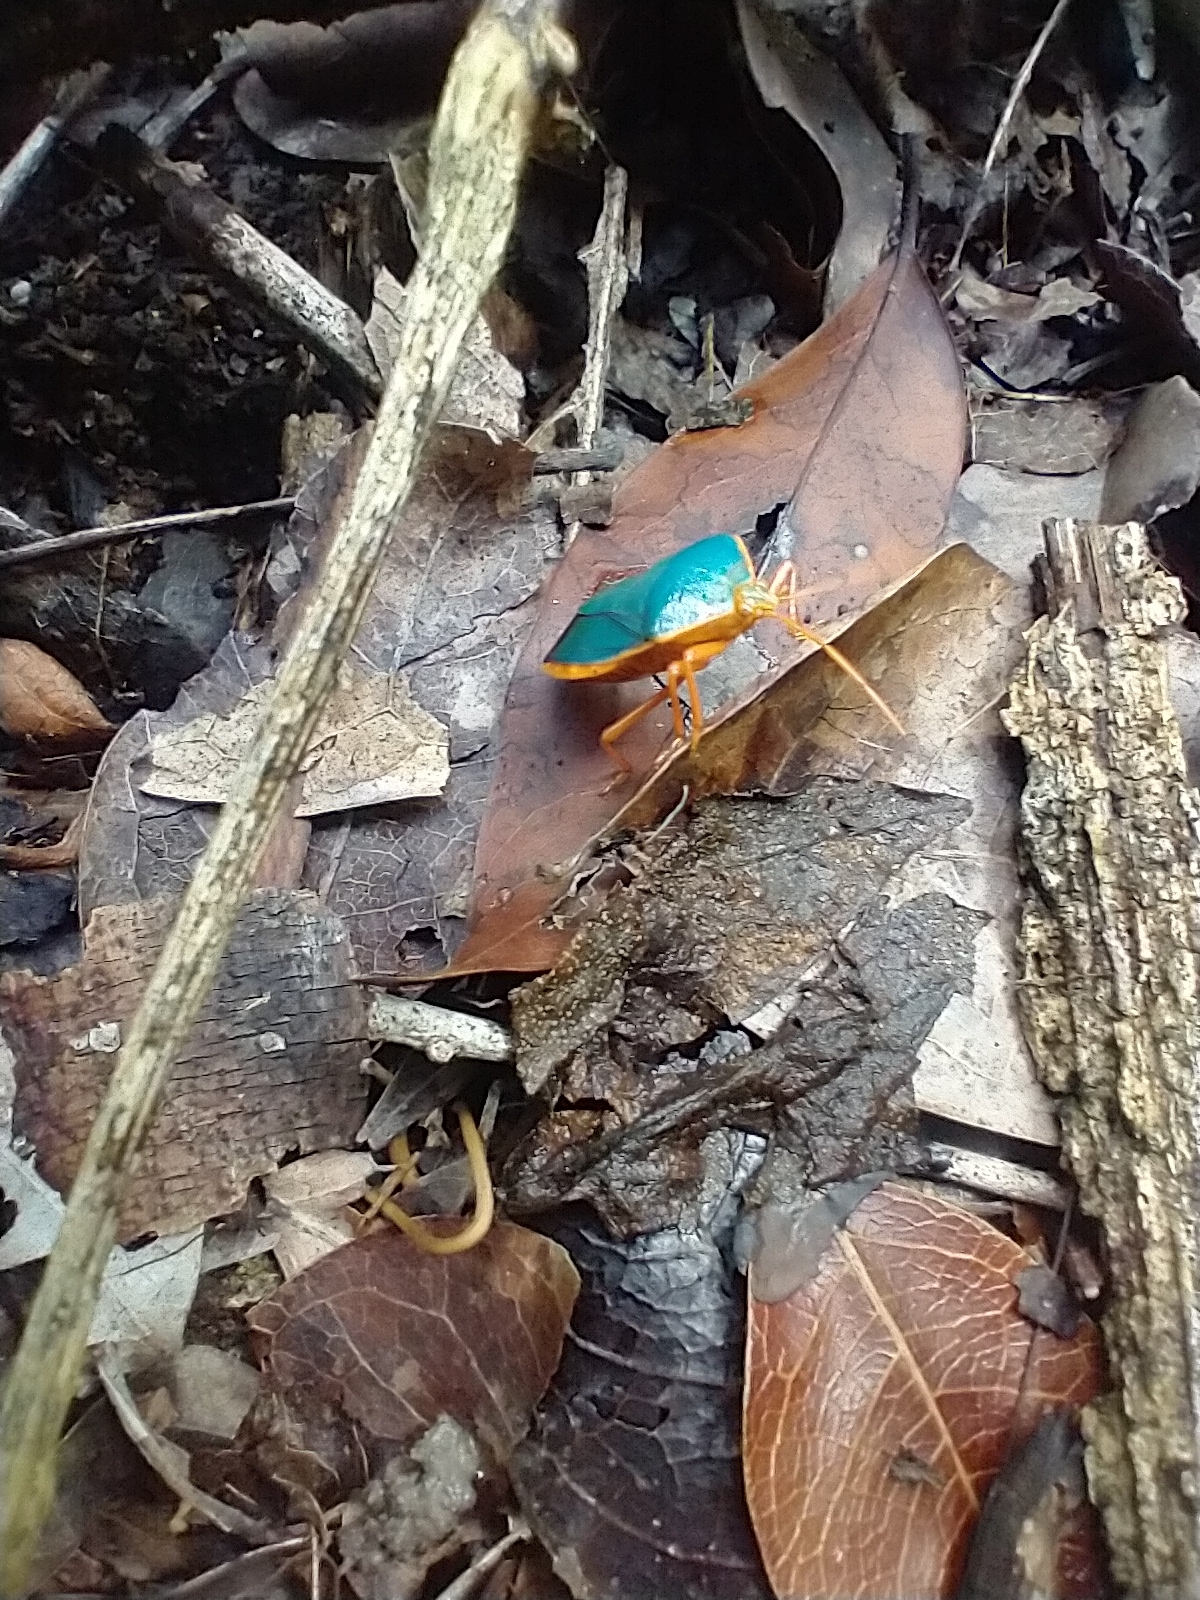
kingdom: Animalia
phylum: Arthropoda
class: Insecta
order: Hemiptera
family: Pentatomidae
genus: Edessa
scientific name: Edessa rufomarginata
